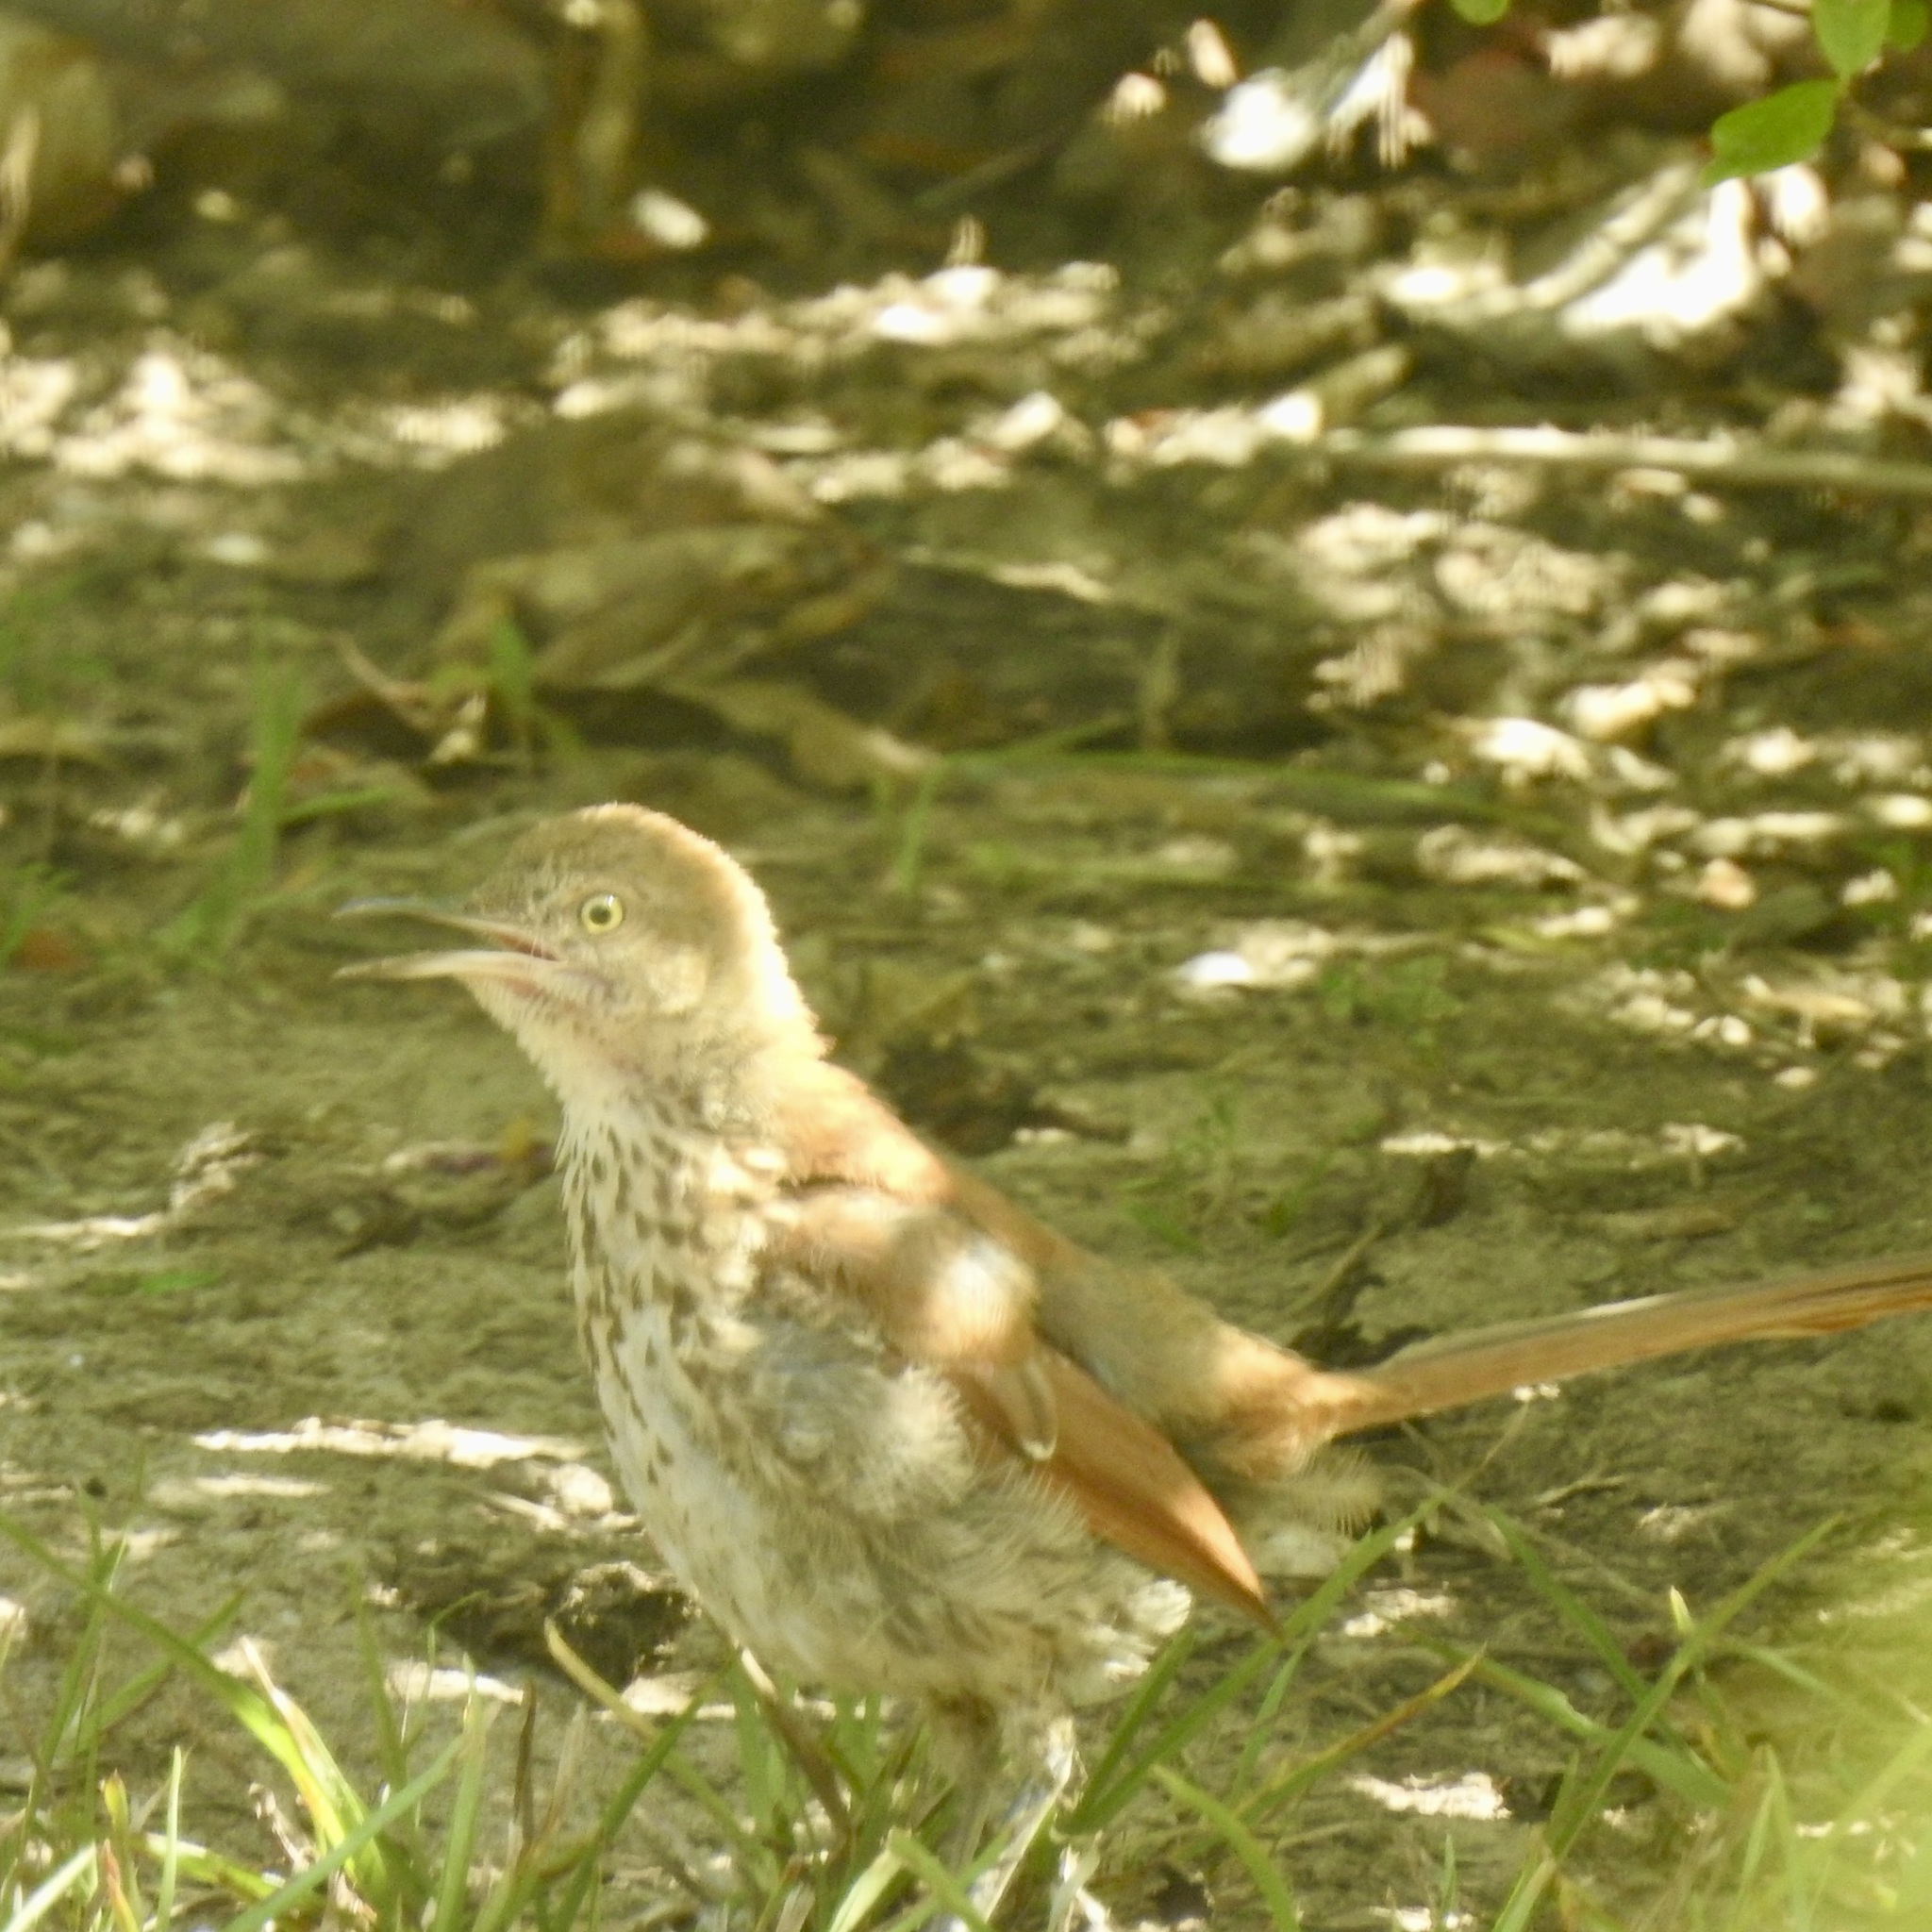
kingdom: Animalia
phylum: Chordata
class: Aves
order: Passeriformes
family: Mimidae
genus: Toxostoma
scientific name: Toxostoma rufum
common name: Brown thrasher
